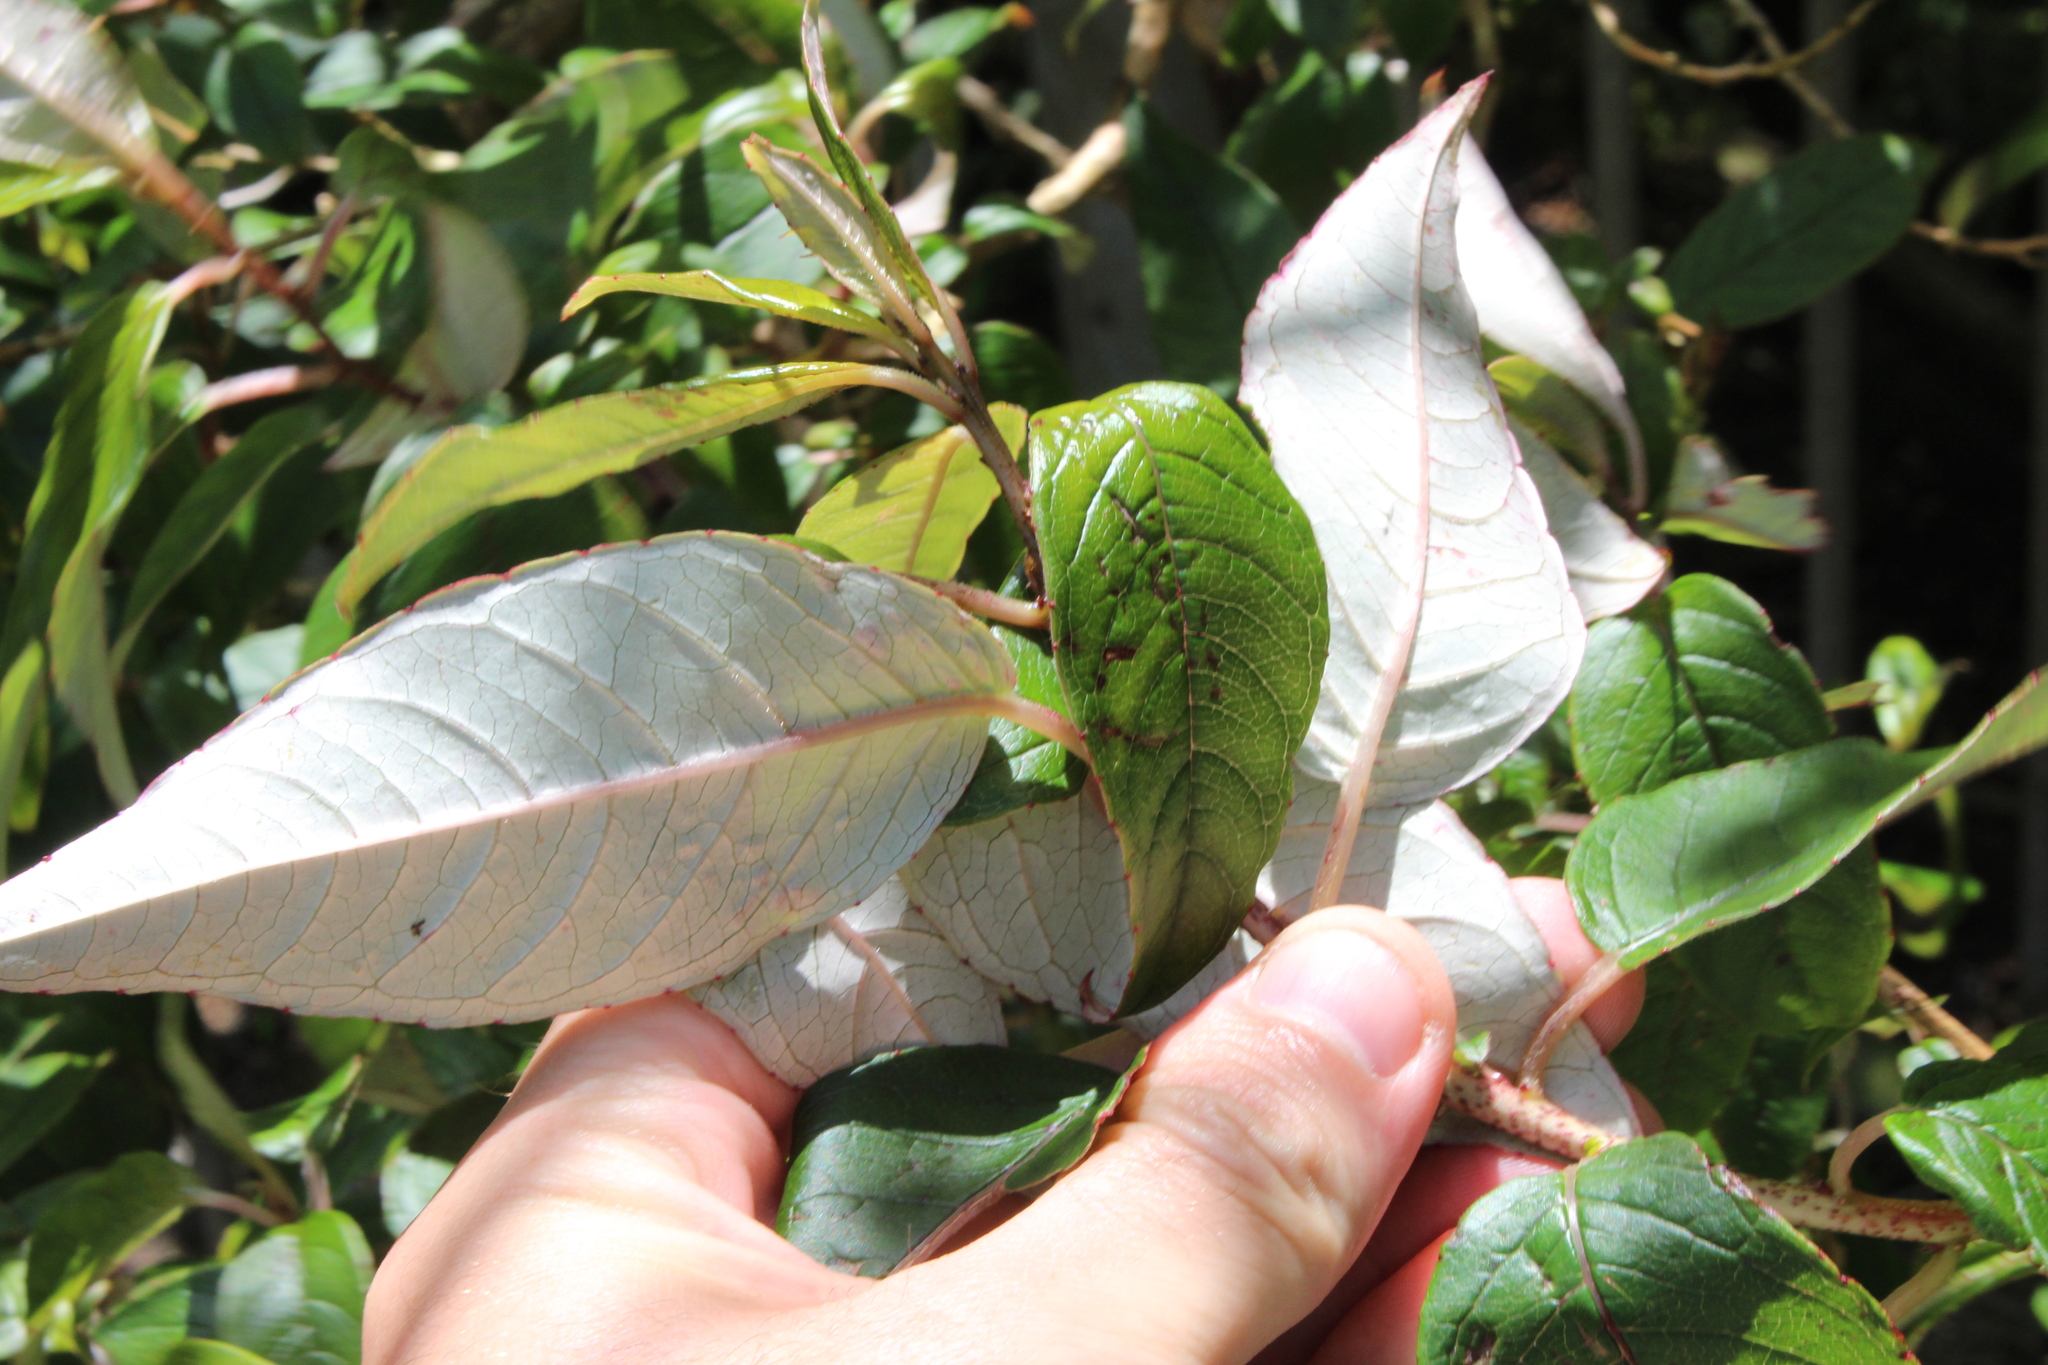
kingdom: Plantae
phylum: Tracheophyta
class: Magnoliopsida
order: Myrtales
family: Onagraceae
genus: Fuchsia
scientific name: Fuchsia excorticata
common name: Tree fuchsia
